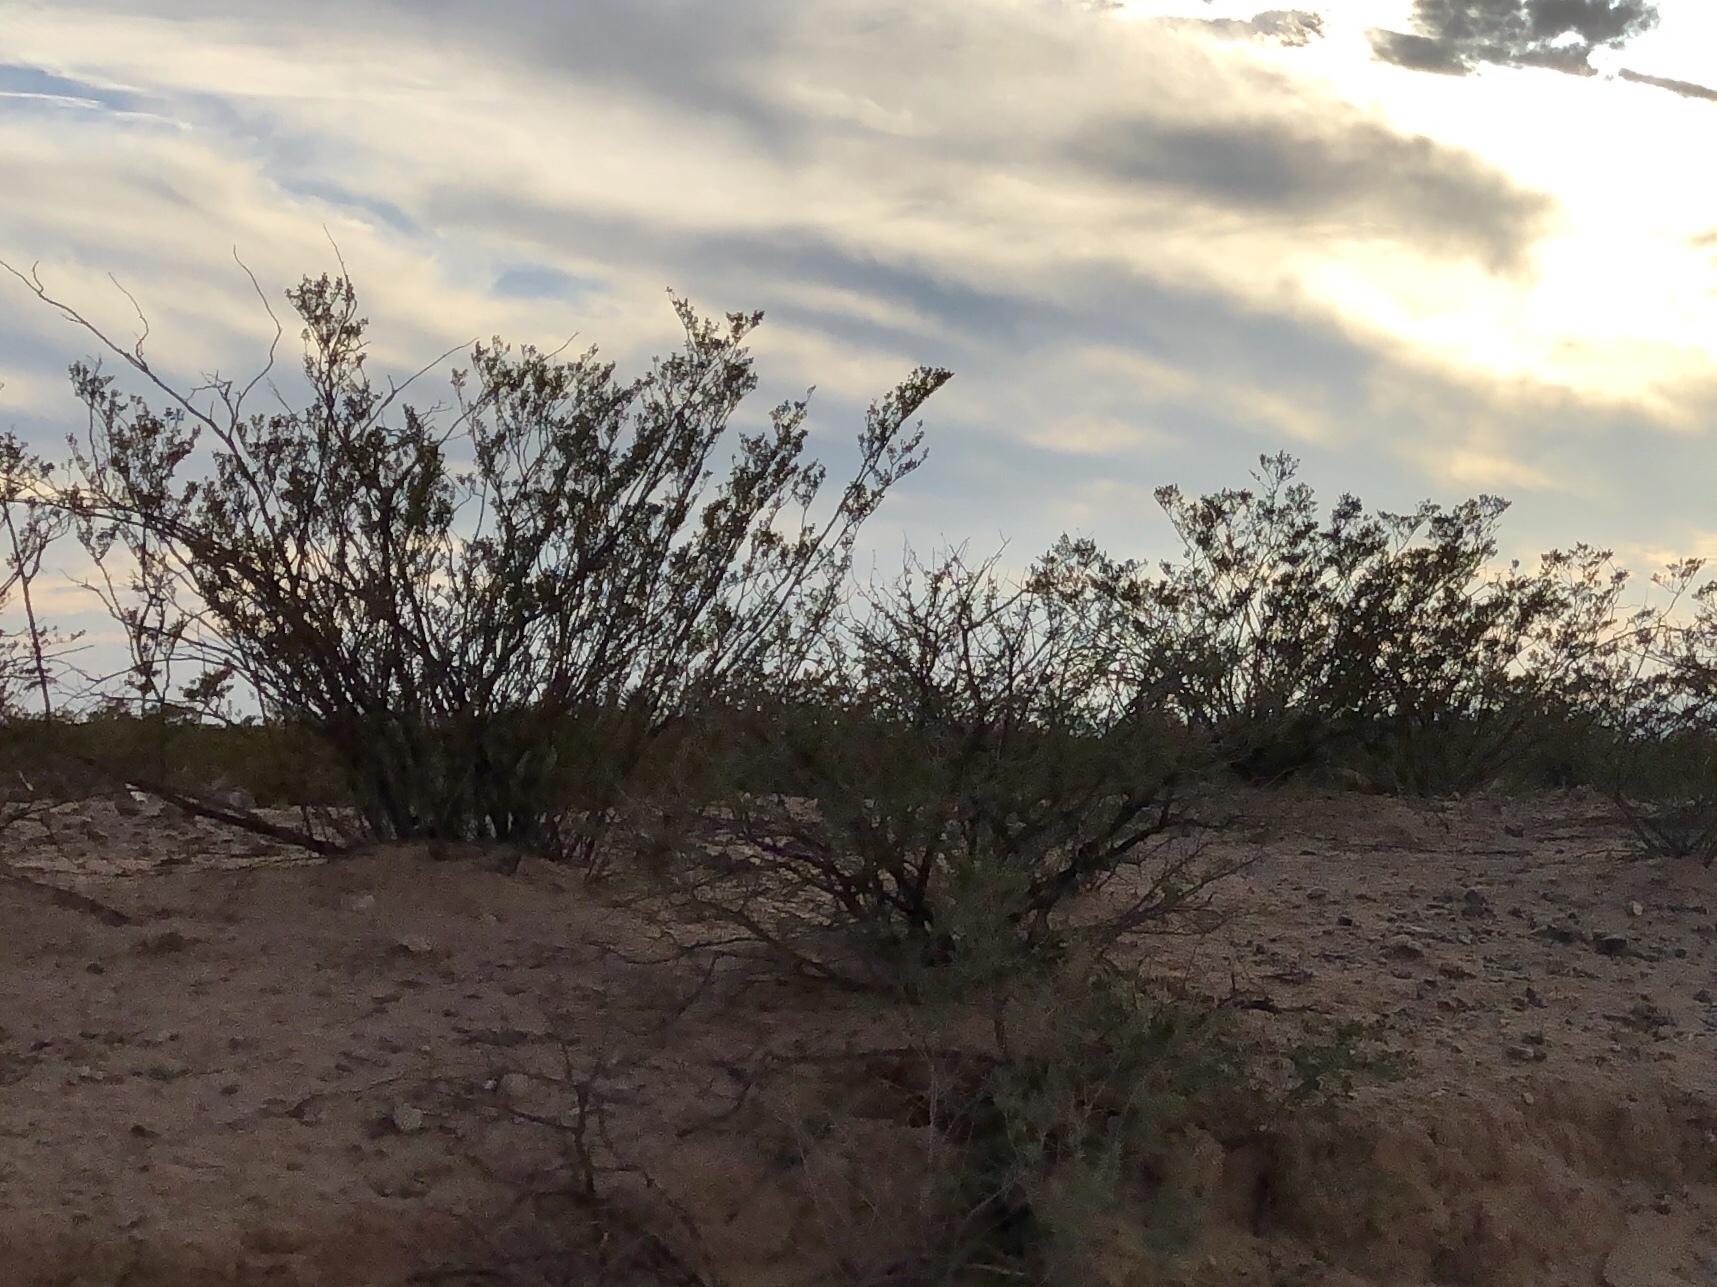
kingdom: Plantae
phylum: Tracheophyta
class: Magnoliopsida
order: Zygophyllales
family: Zygophyllaceae
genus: Larrea
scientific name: Larrea tridentata
